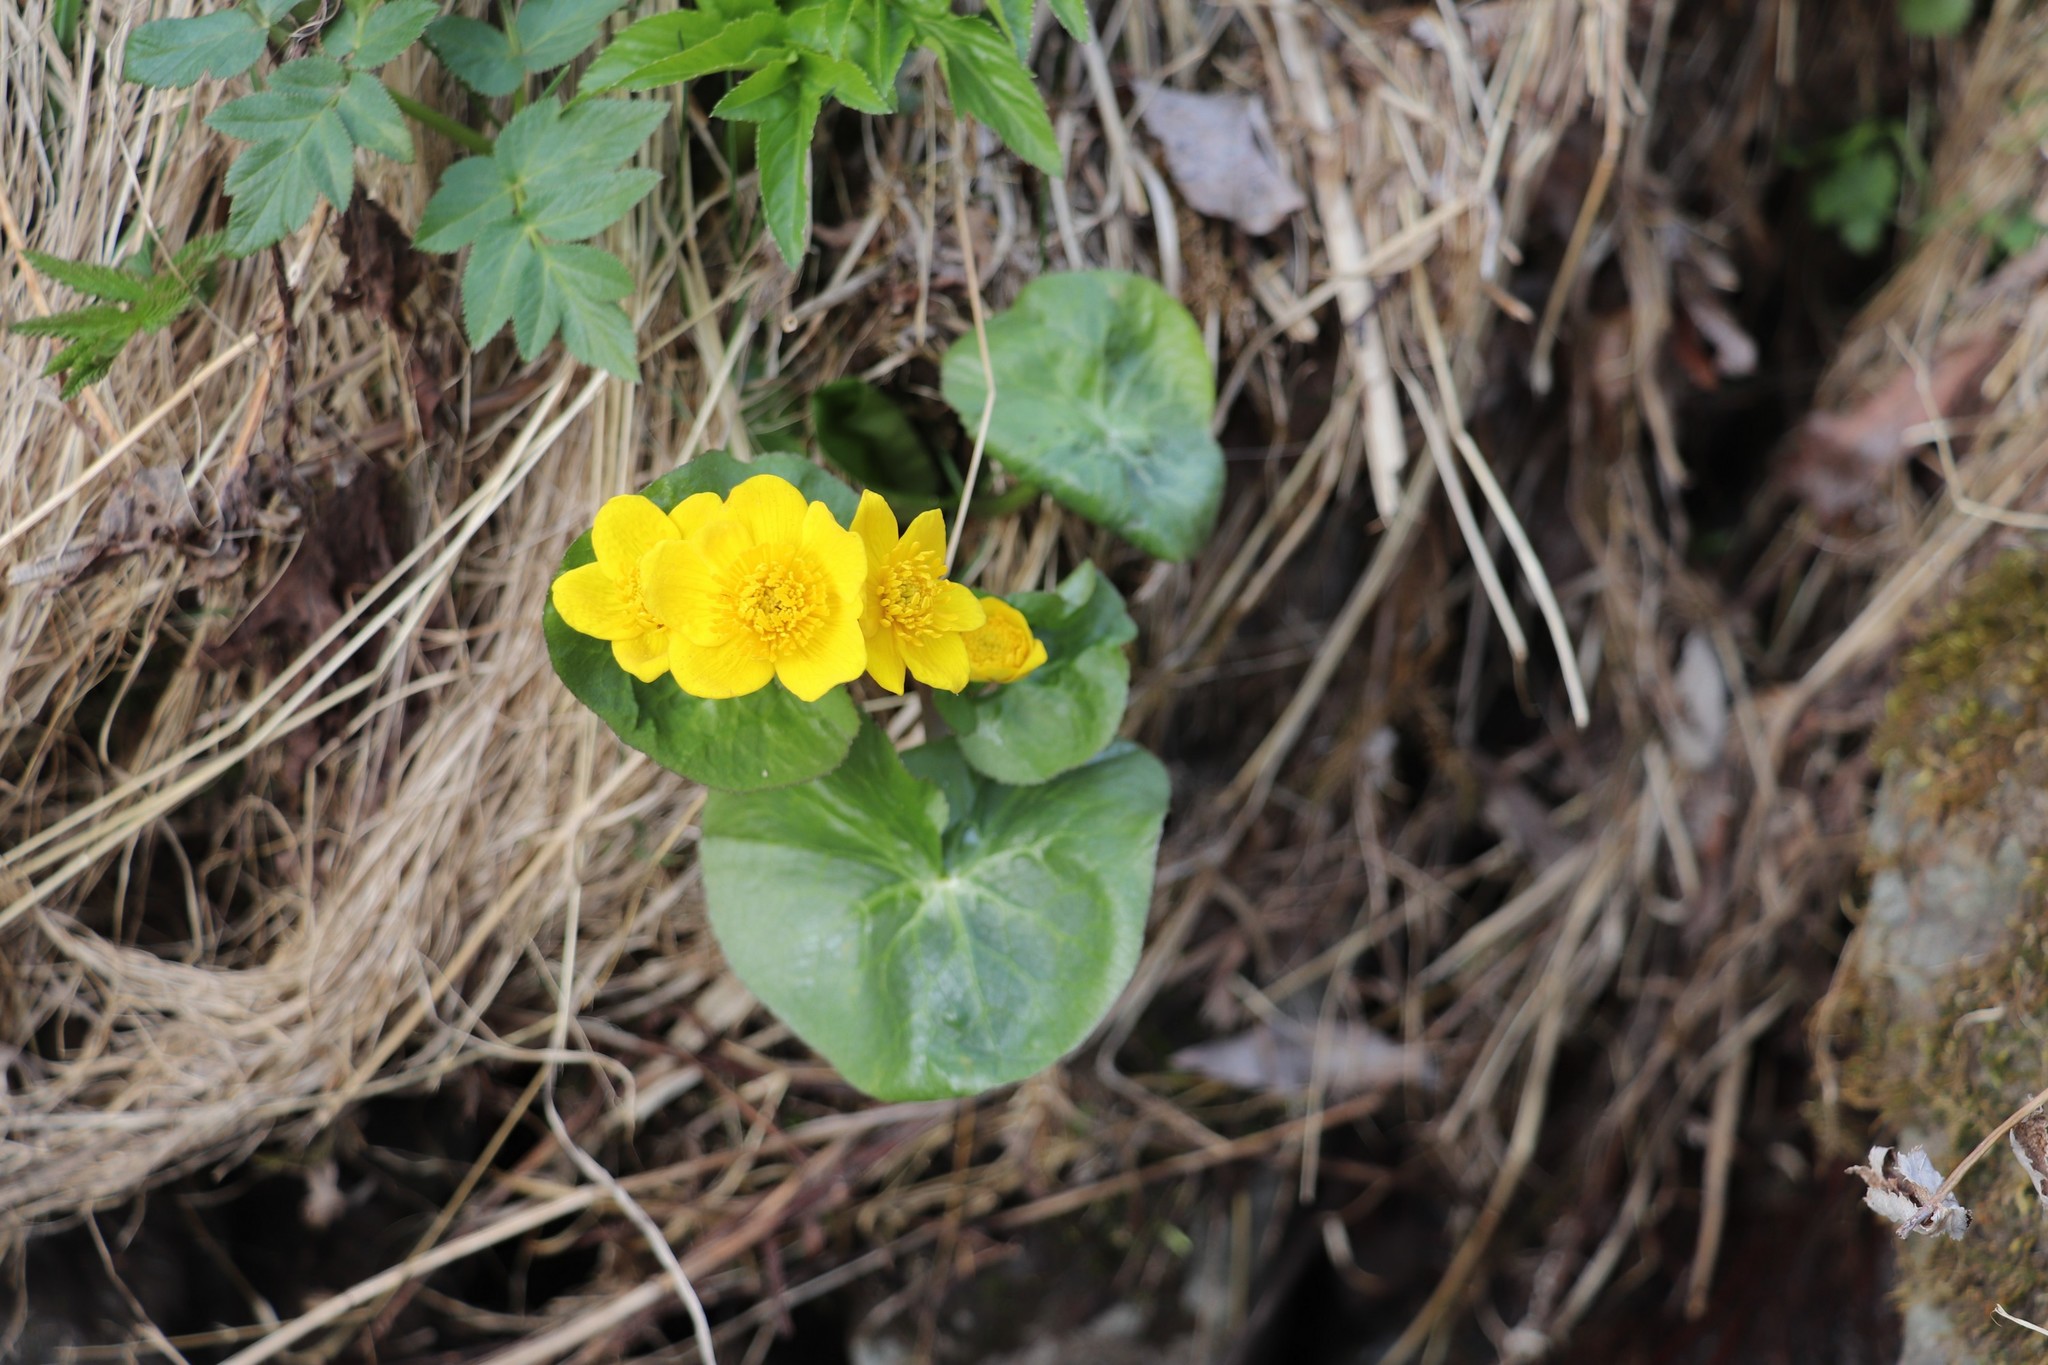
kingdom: Plantae
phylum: Tracheophyta
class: Magnoliopsida
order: Ranunculales
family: Ranunculaceae
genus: Caltha
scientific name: Caltha palustris
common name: Marsh marigold
